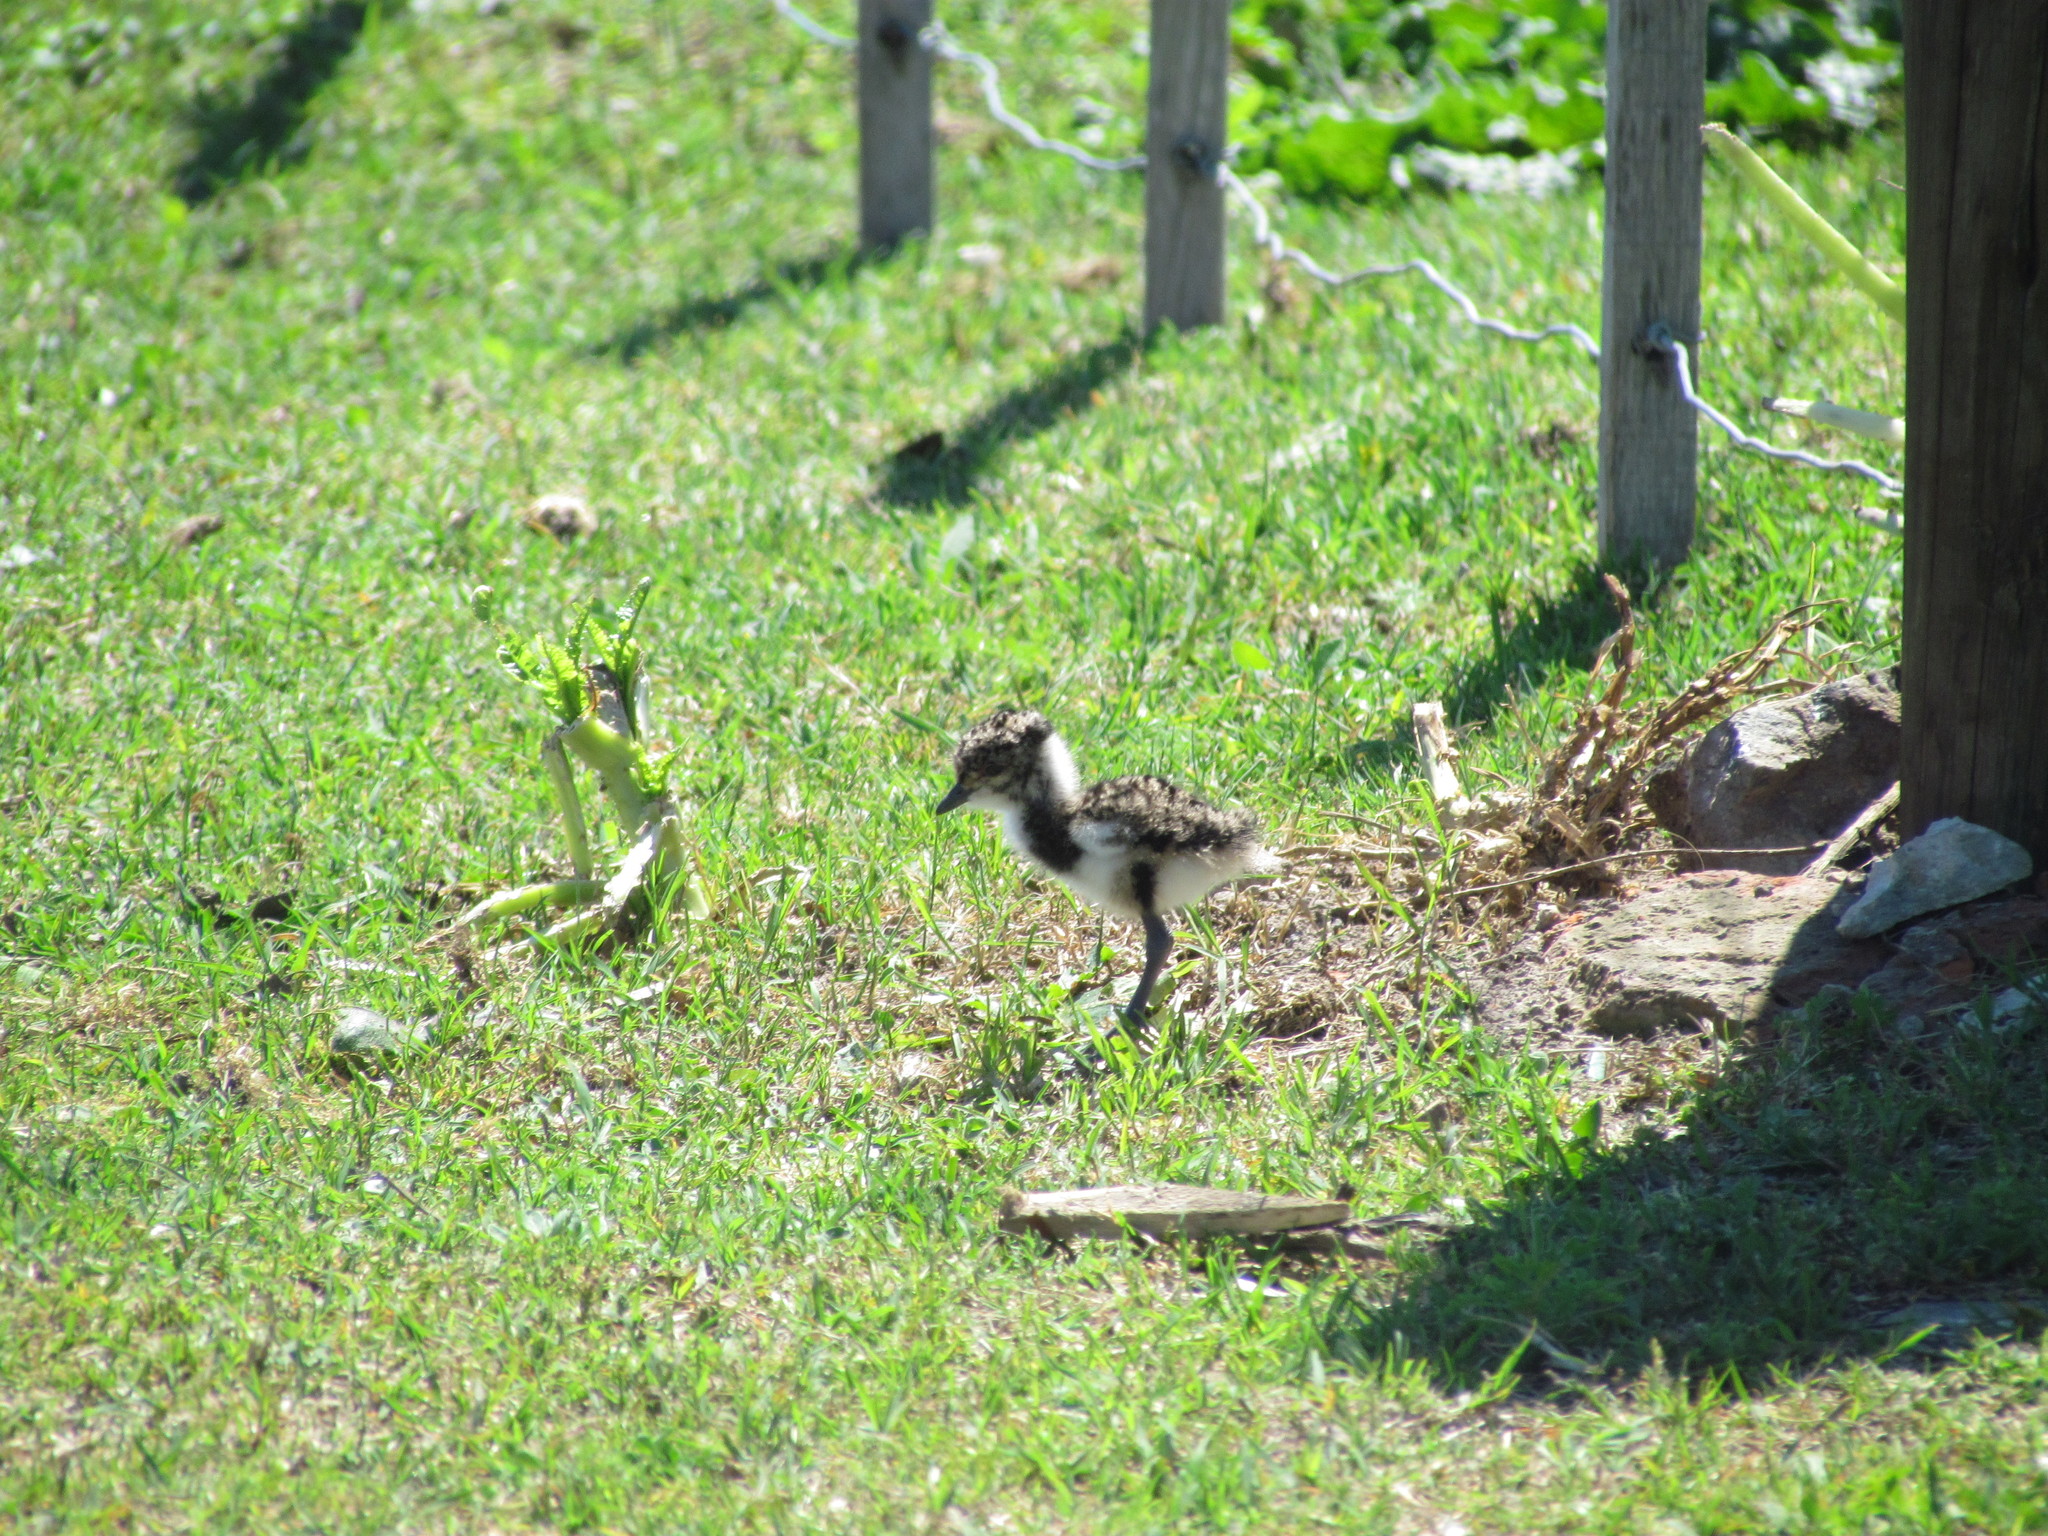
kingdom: Animalia
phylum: Chordata
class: Aves
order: Charadriiformes
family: Charadriidae
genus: Vanellus
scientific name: Vanellus chilensis
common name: Southern lapwing
